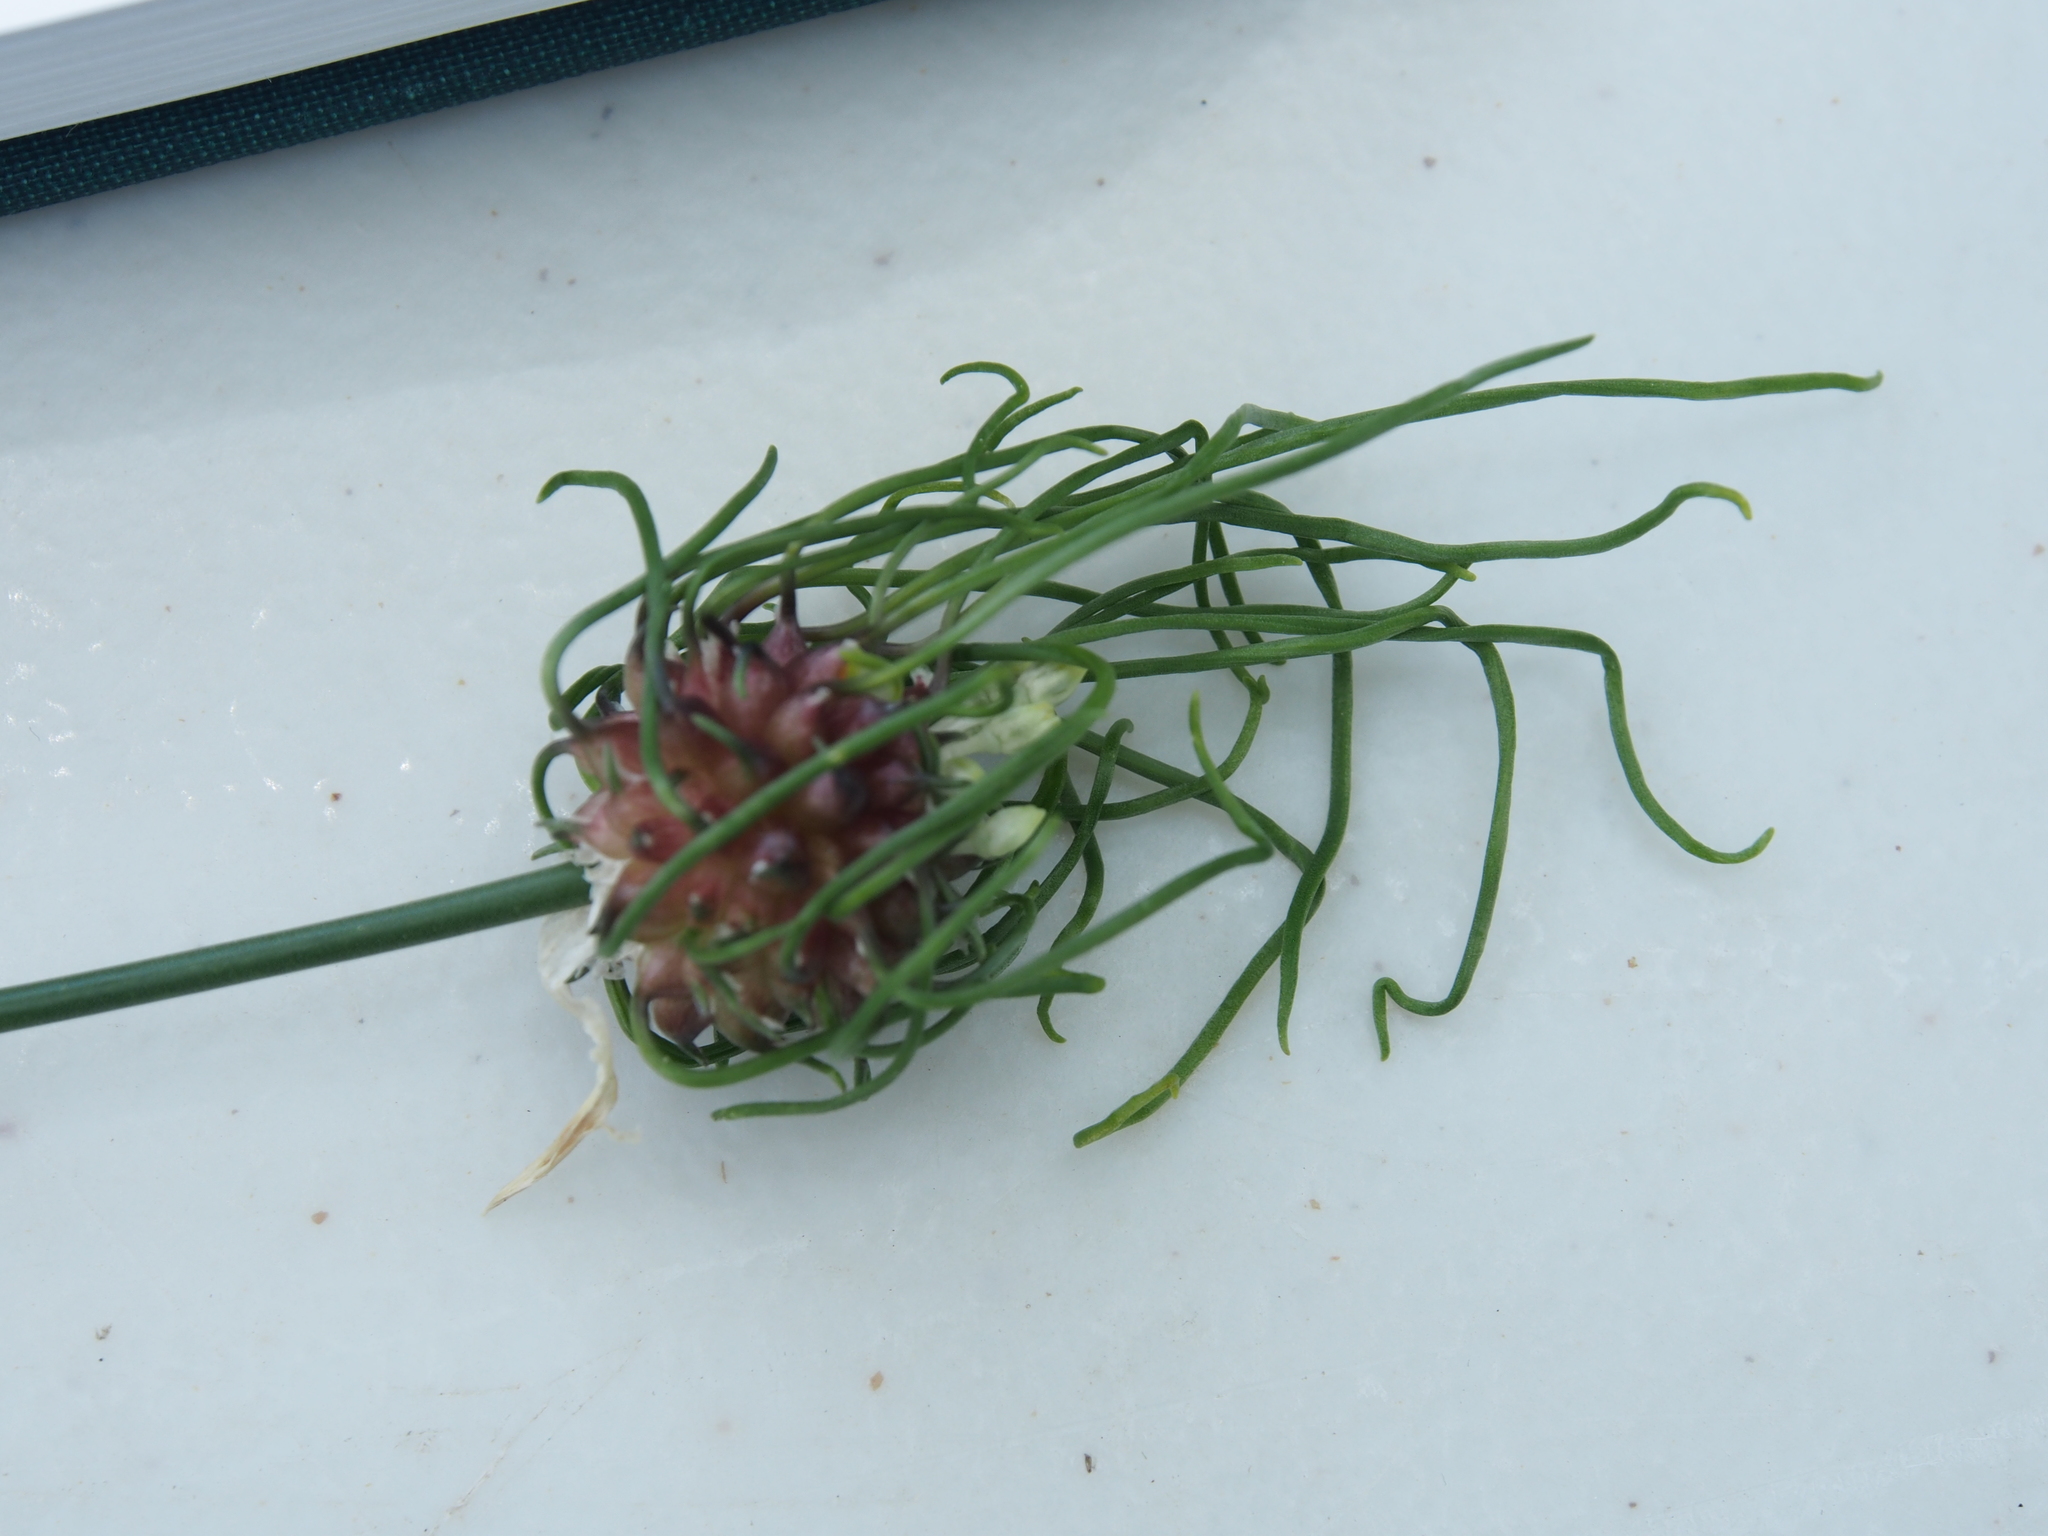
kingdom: Plantae
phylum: Tracheophyta
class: Liliopsida
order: Asparagales
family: Amaryllidaceae
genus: Allium
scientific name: Allium vineale
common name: Crow garlic
